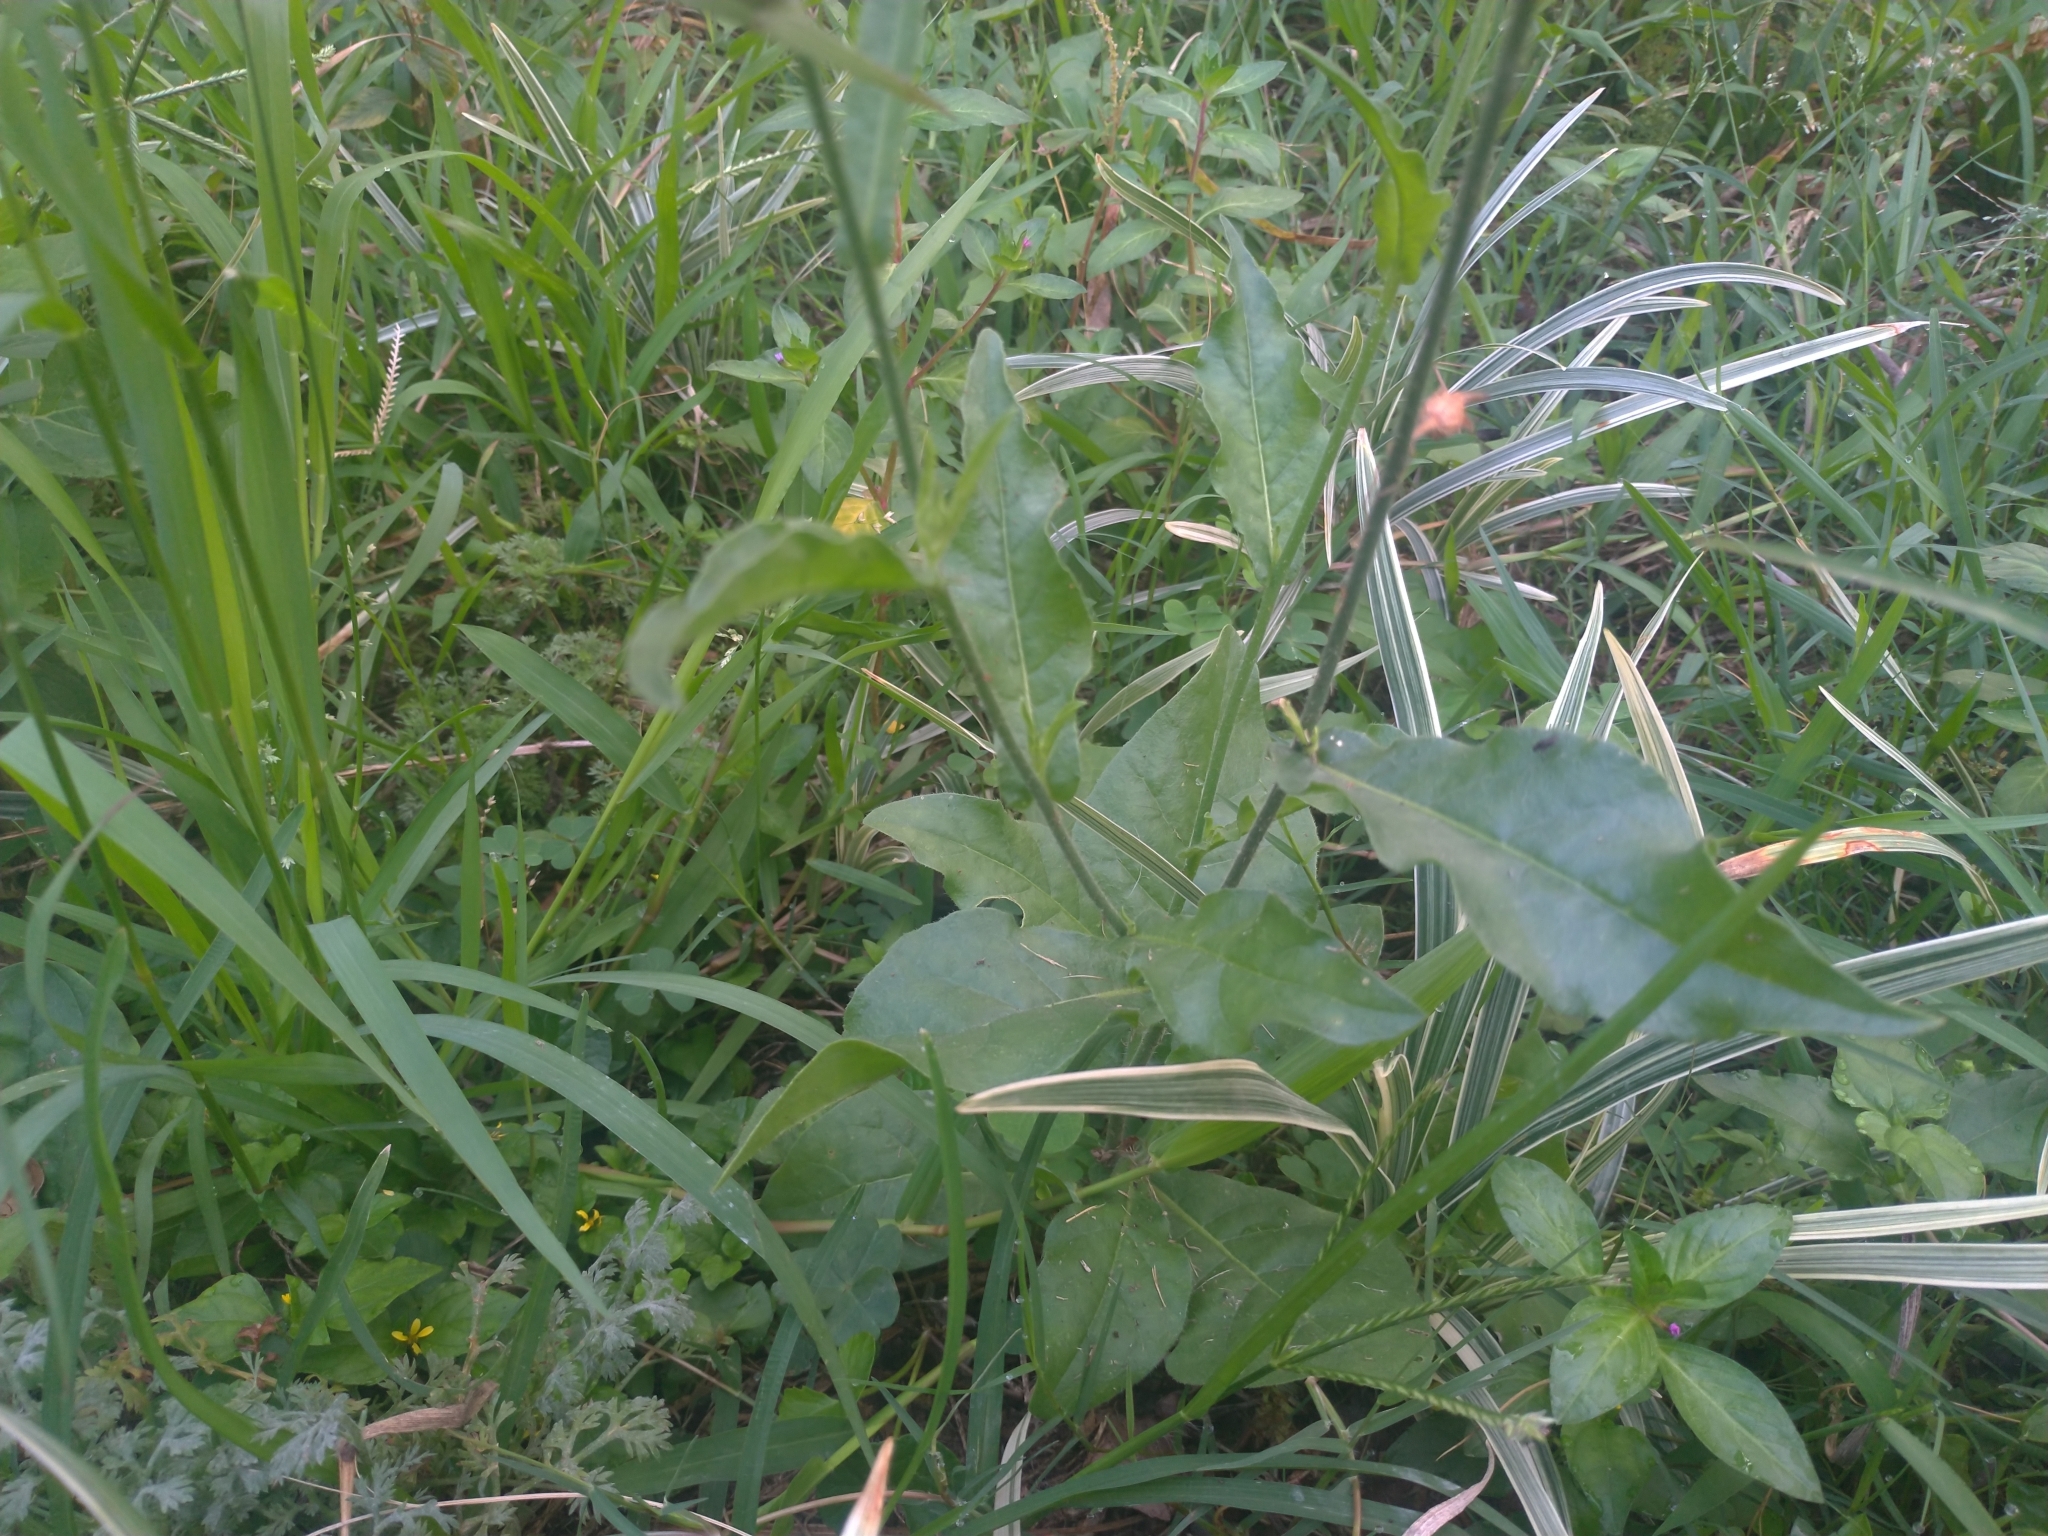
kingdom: Plantae
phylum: Tracheophyta
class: Magnoliopsida
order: Solanales
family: Solanaceae
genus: Nicotiana
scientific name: Nicotiana plumbaginifolia
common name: Tex-mex tobacco
